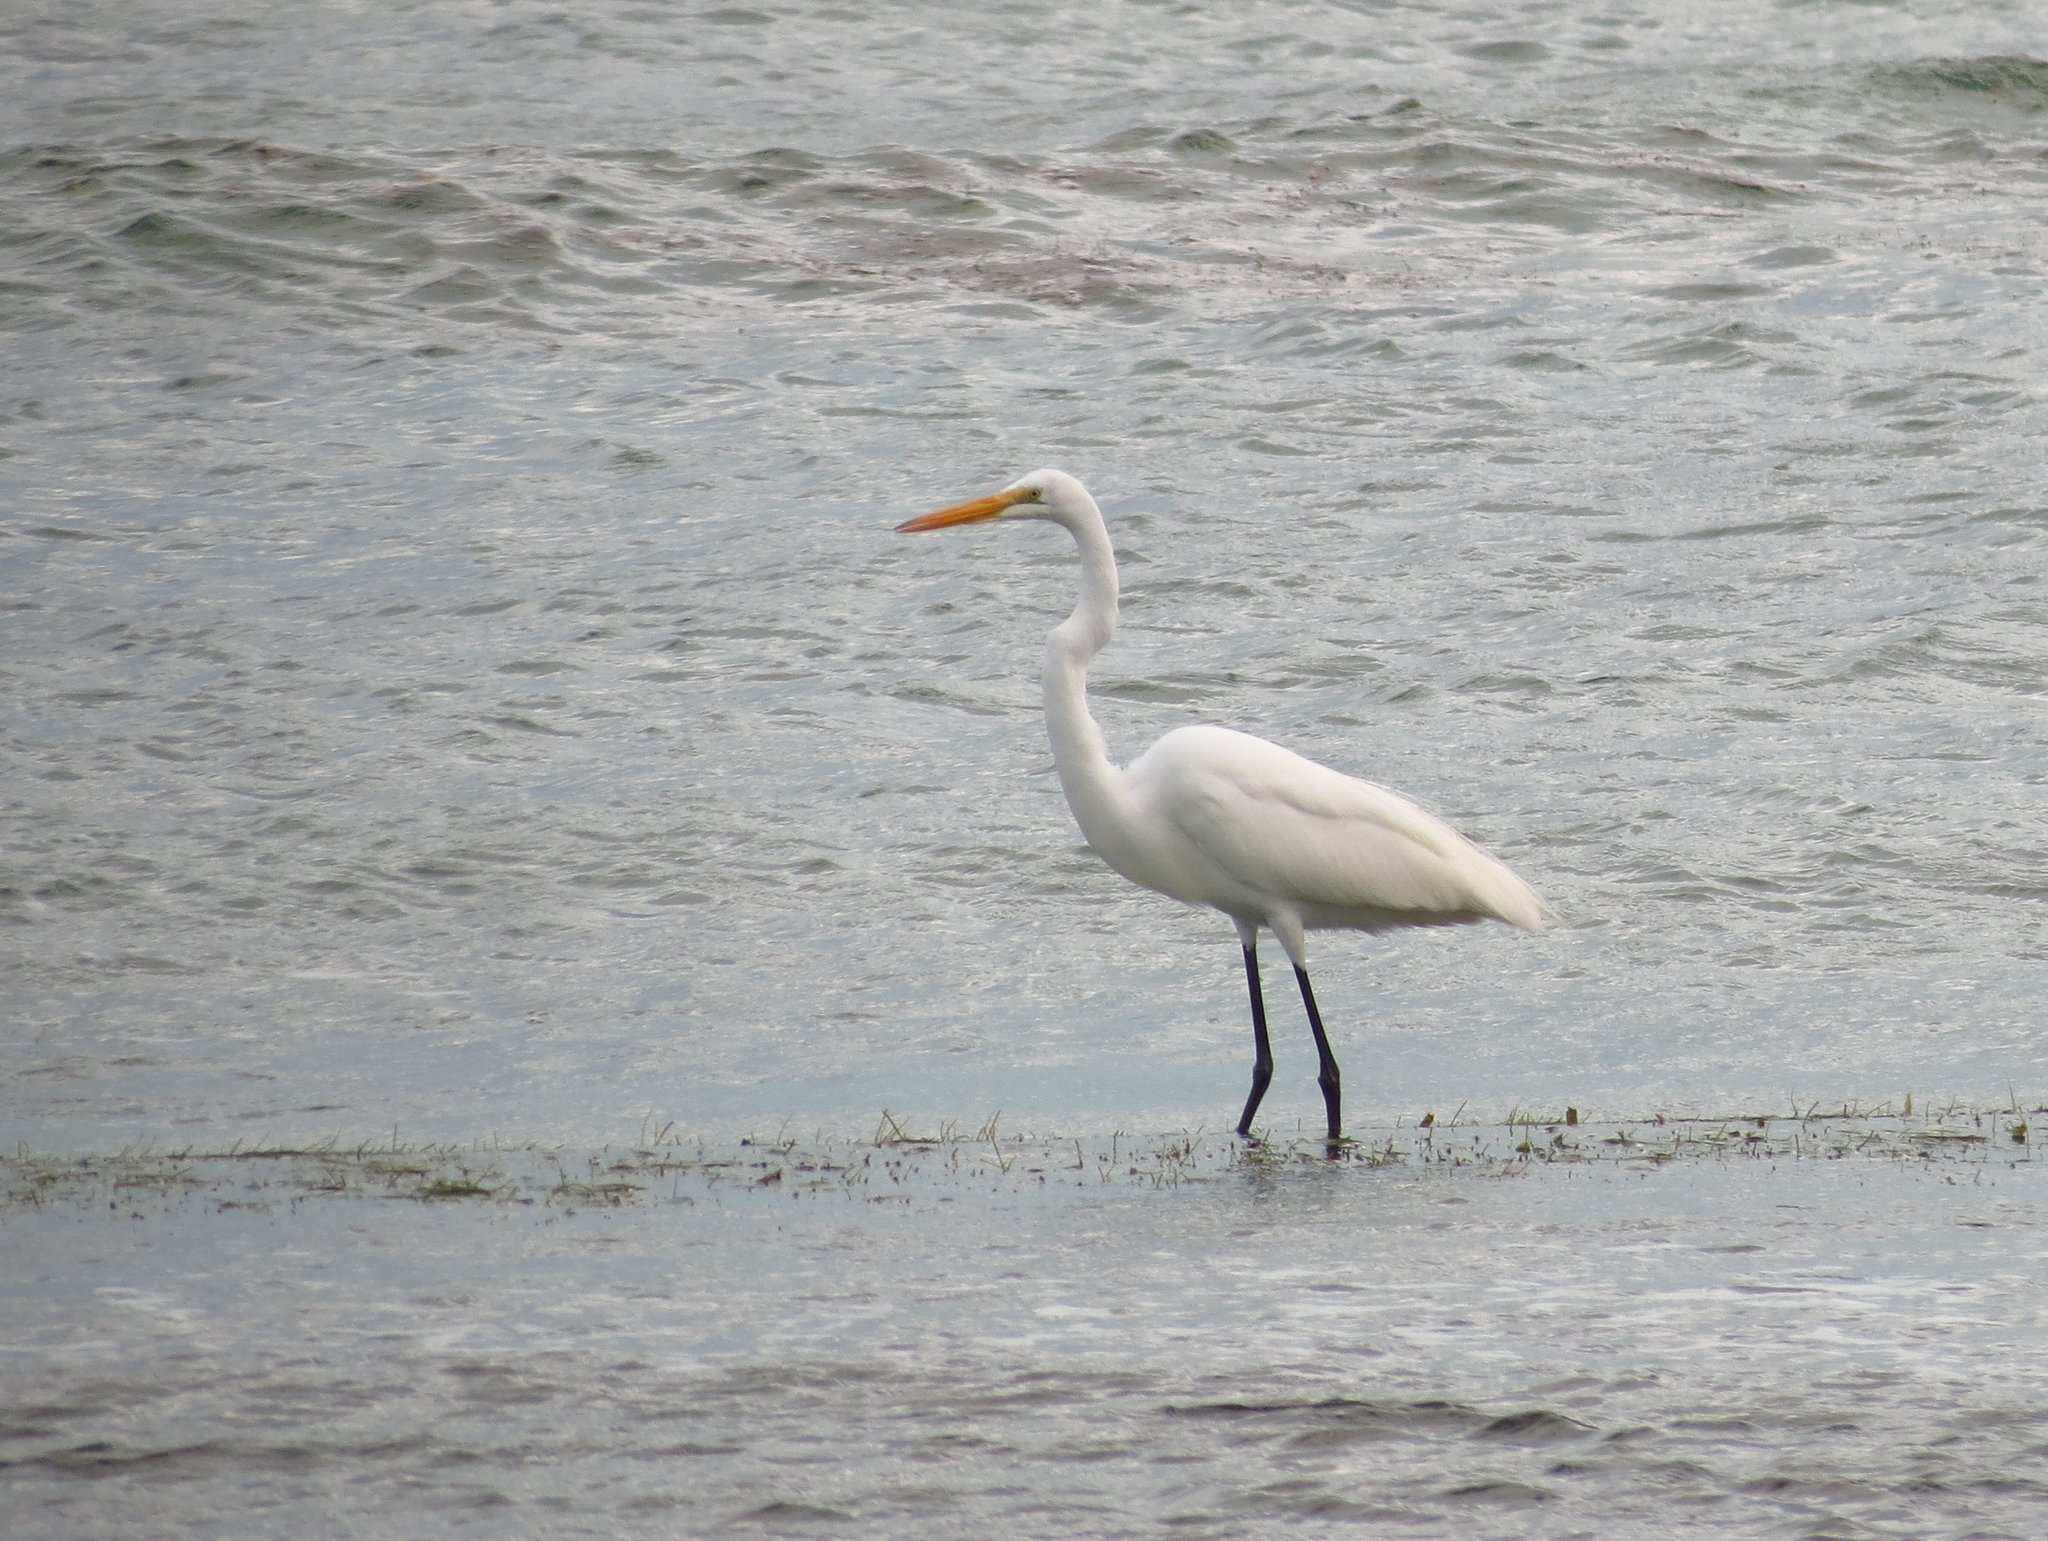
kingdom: Animalia
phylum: Chordata
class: Aves
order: Pelecaniformes
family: Ardeidae
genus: Ardea
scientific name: Ardea alba
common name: Great egret
